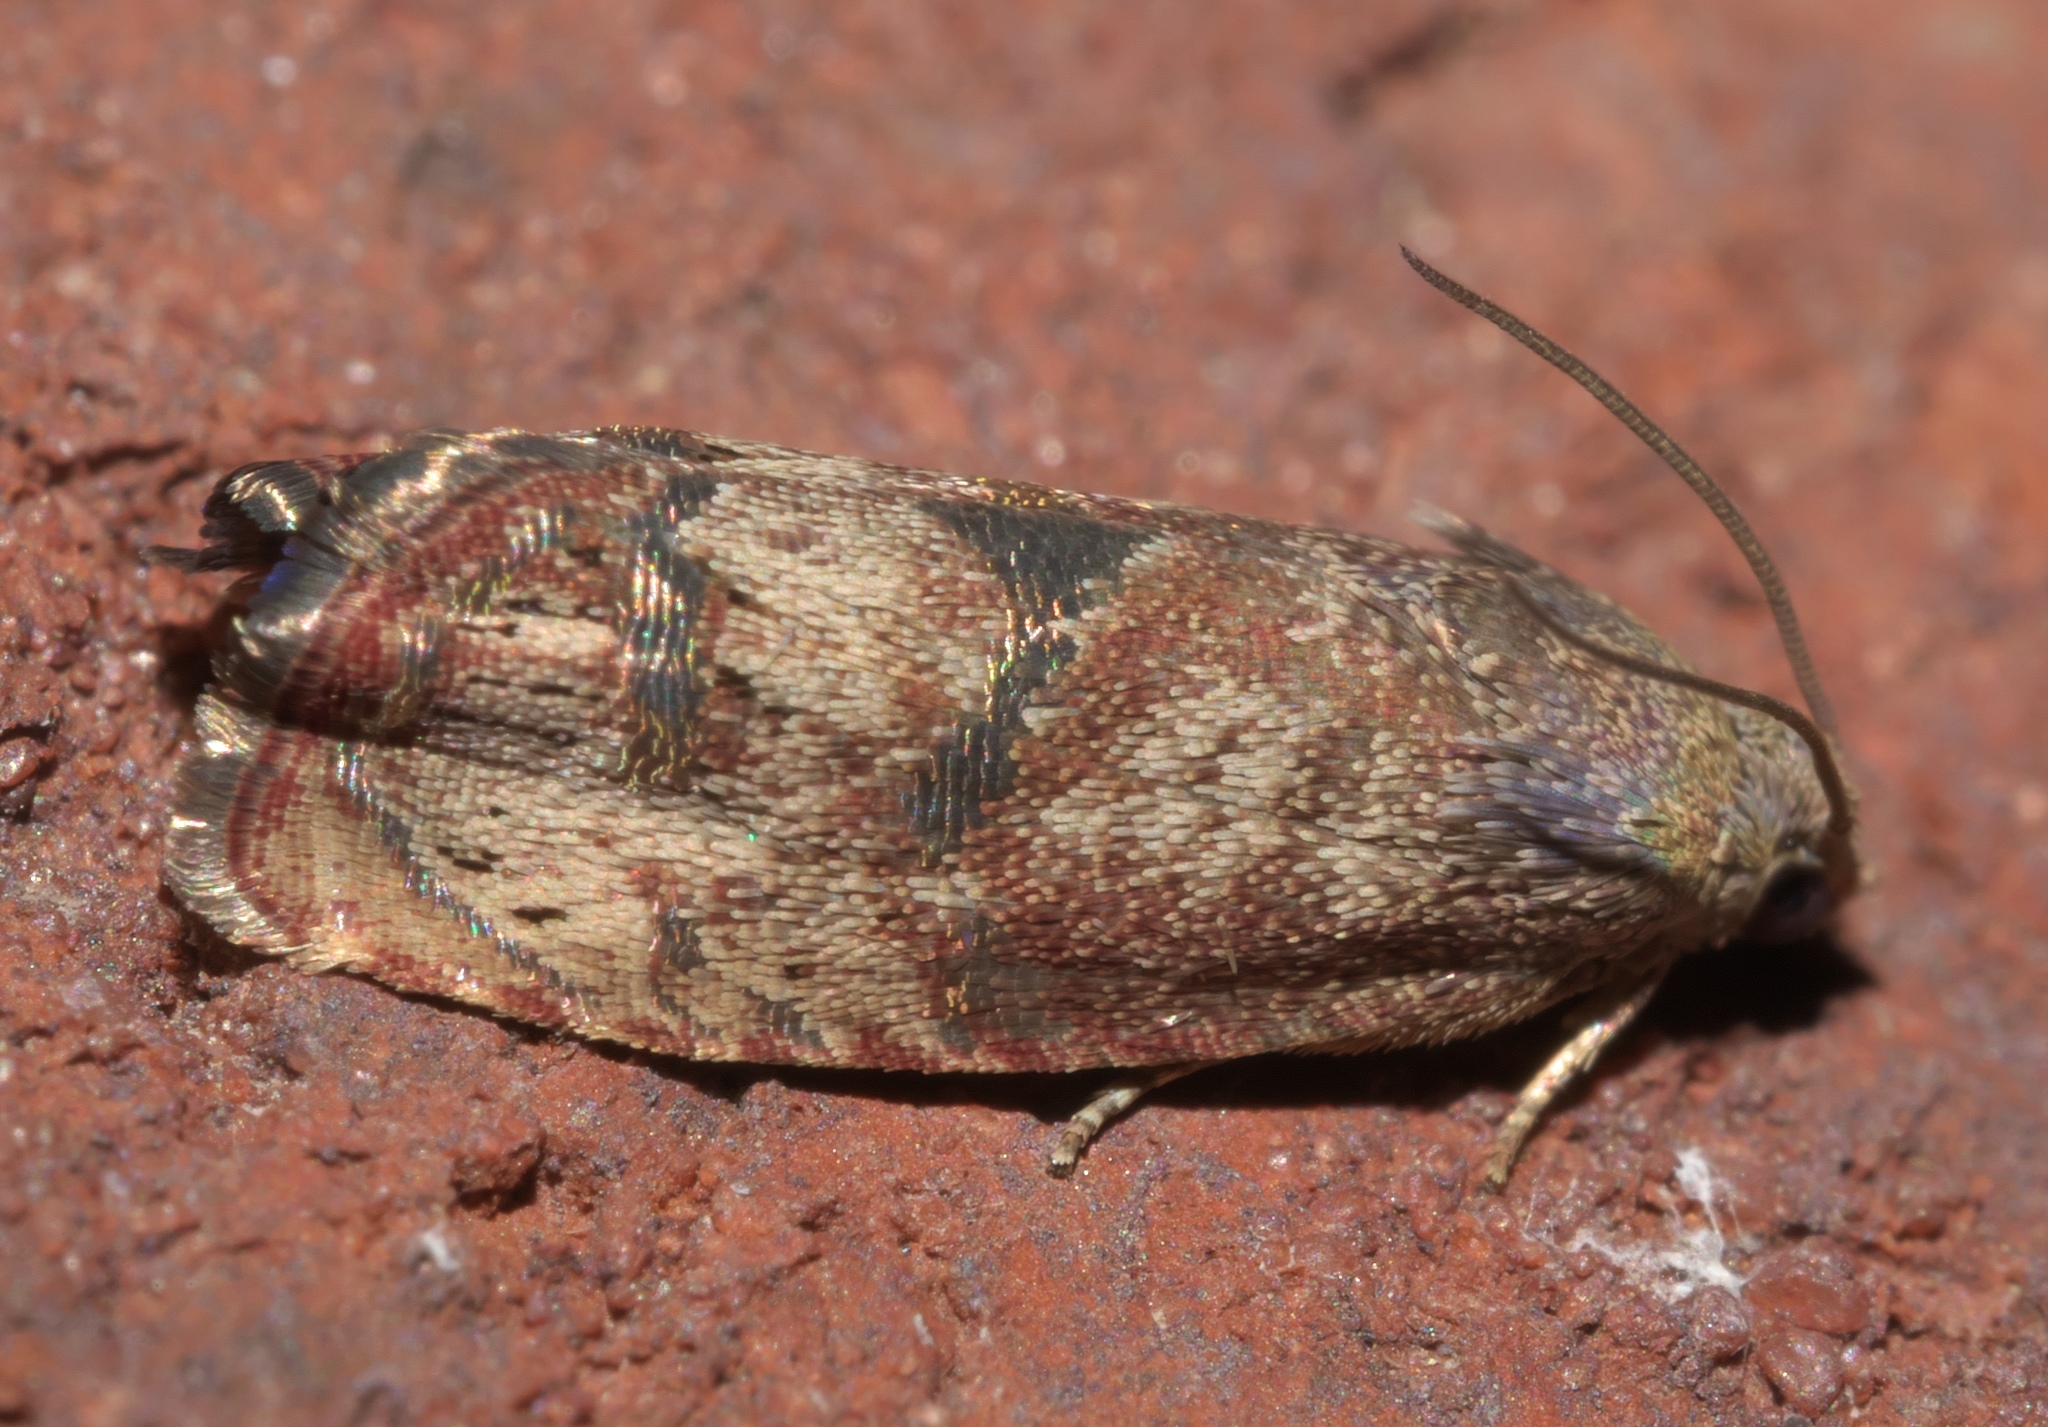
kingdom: Animalia
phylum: Arthropoda
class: Insecta
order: Lepidoptera
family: Tortricidae
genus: Cydia
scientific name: Cydia latiferreana
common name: Filbertworm moth
